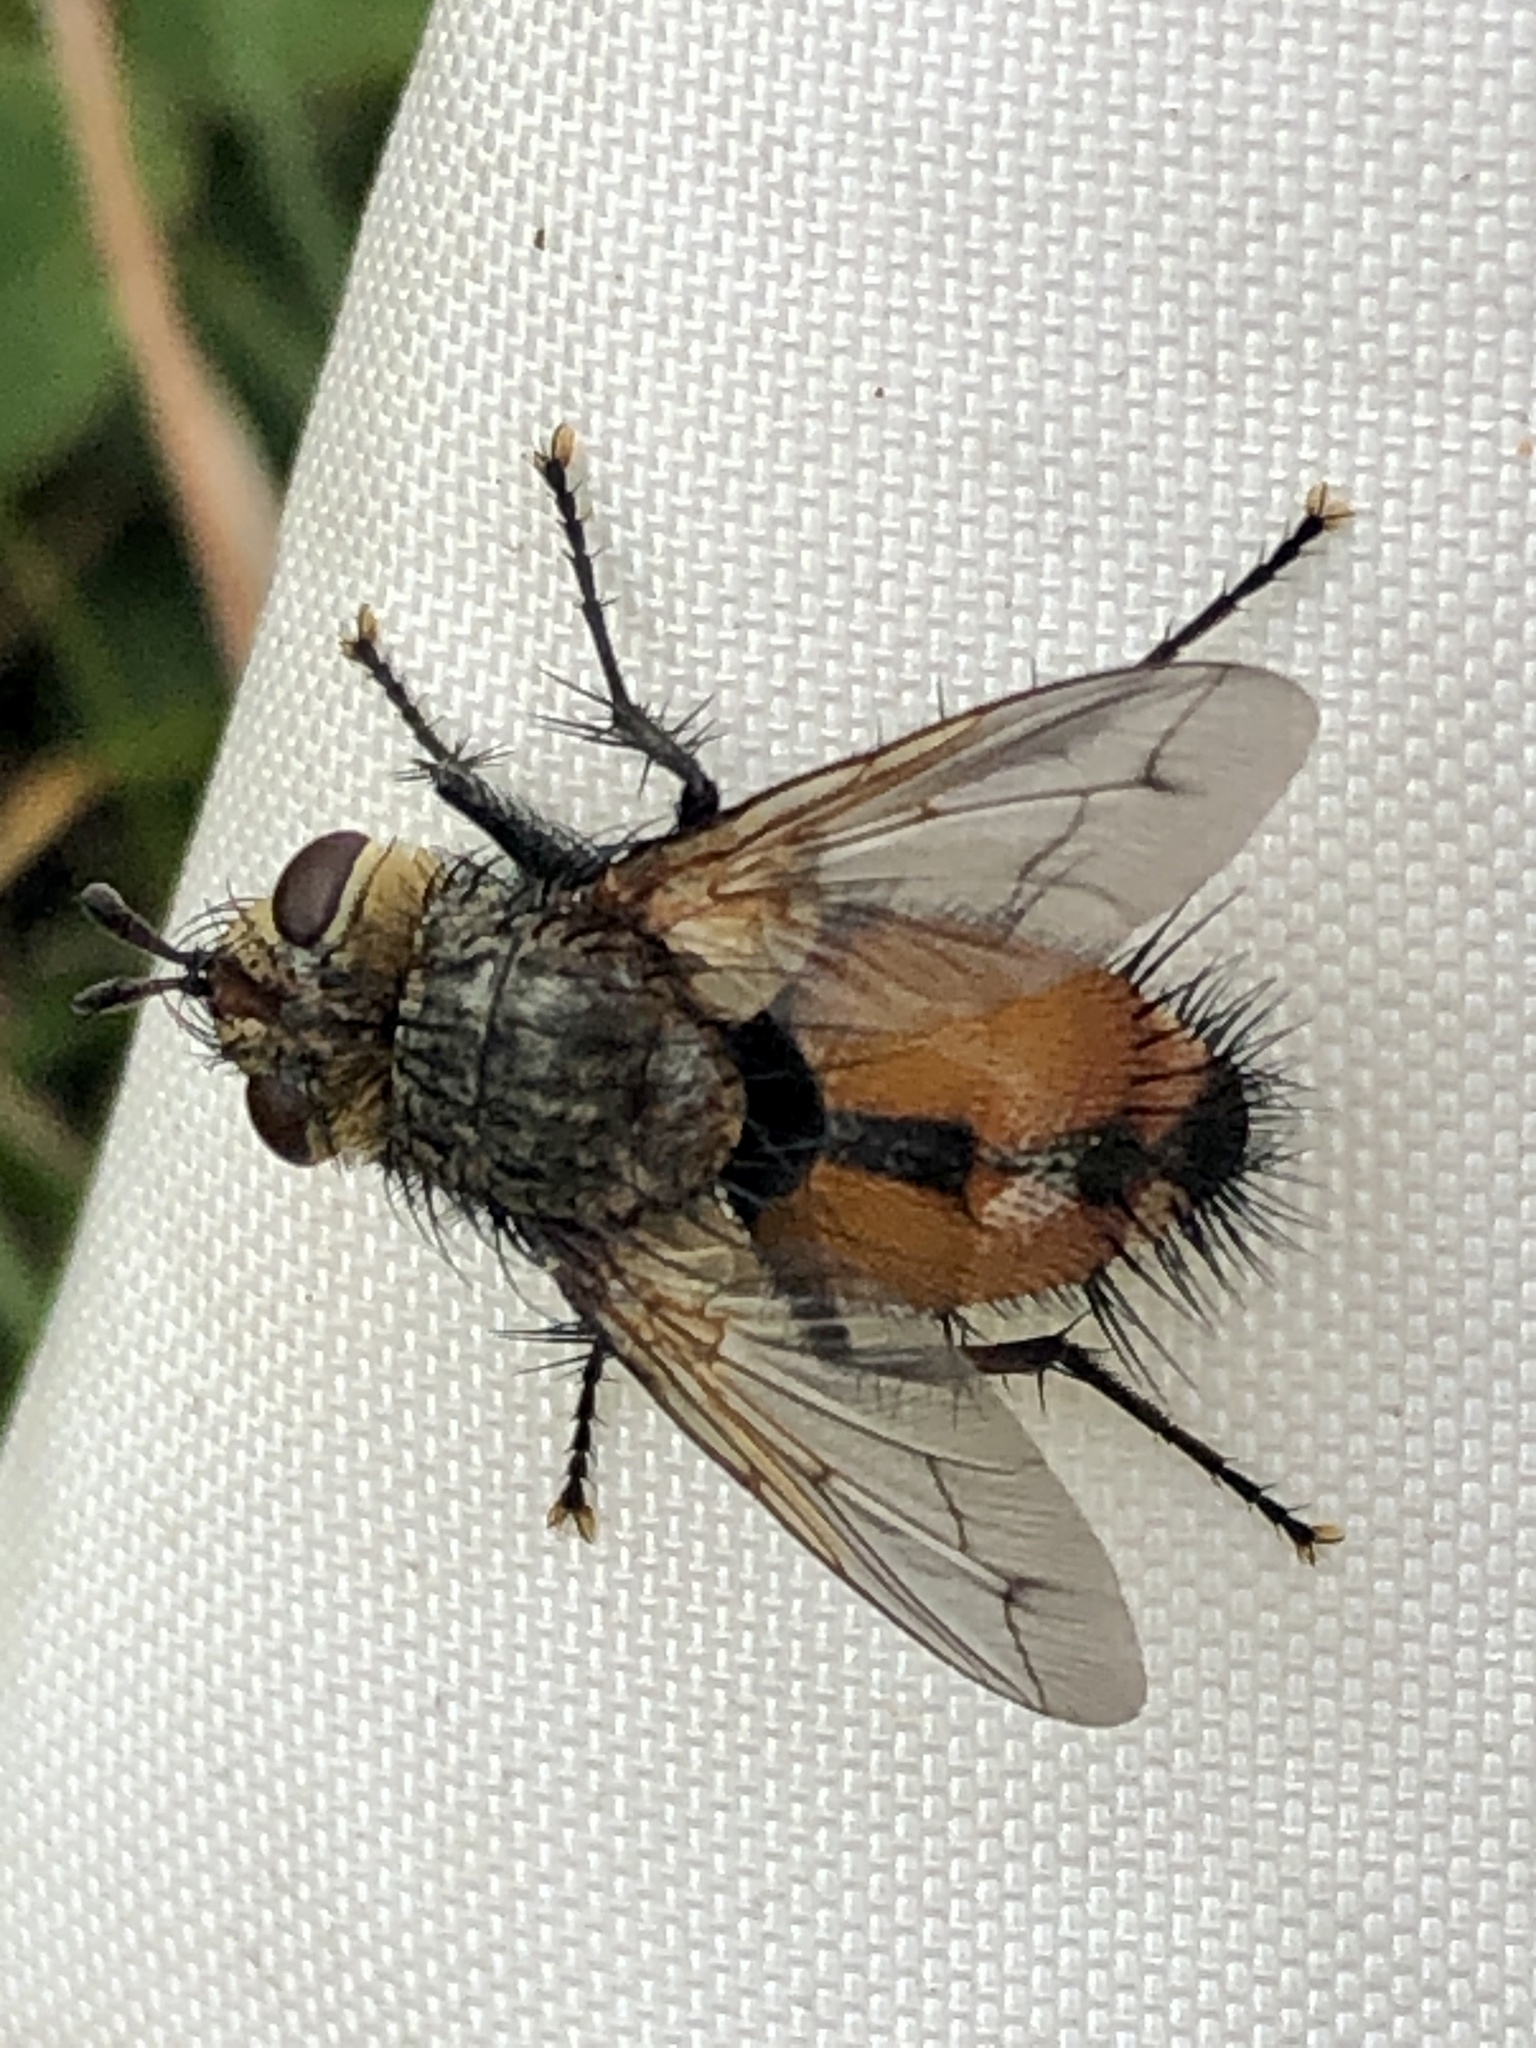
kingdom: Animalia
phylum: Arthropoda
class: Insecta
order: Diptera
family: Tachinidae
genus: Peleteria
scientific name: Peleteria iterans
